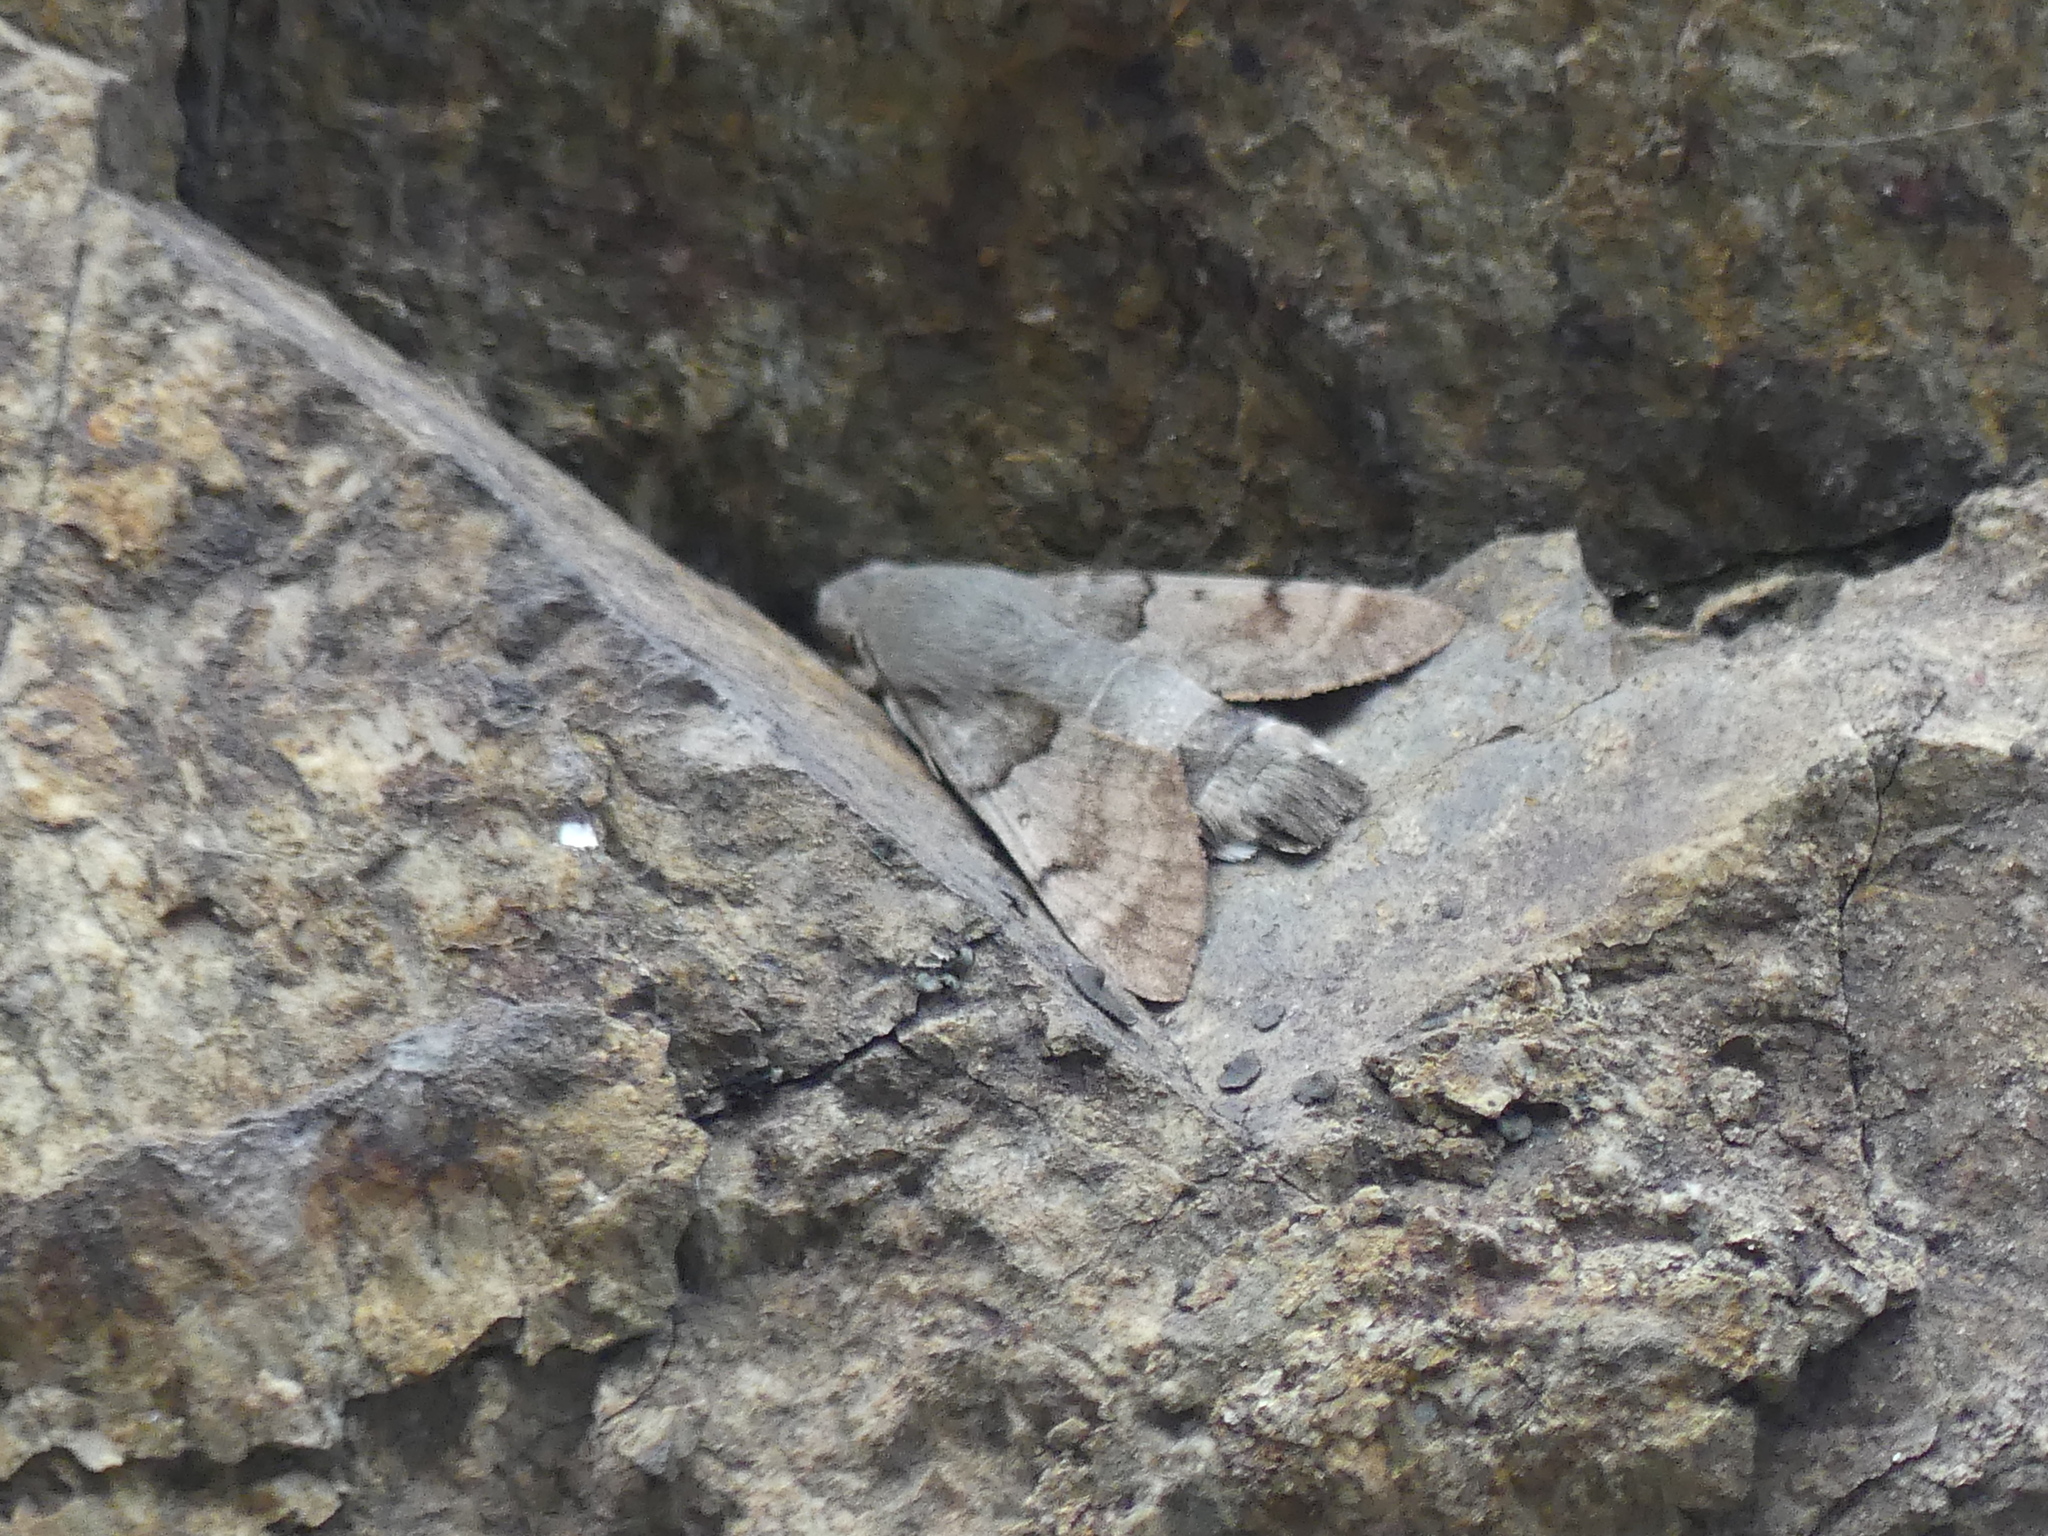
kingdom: Animalia
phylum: Arthropoda
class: Insecta
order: Lepidoptera
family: Sphingidae
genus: Macroglossum
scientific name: Macroglossum stellatarum
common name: Humming-bird hawk-moth
